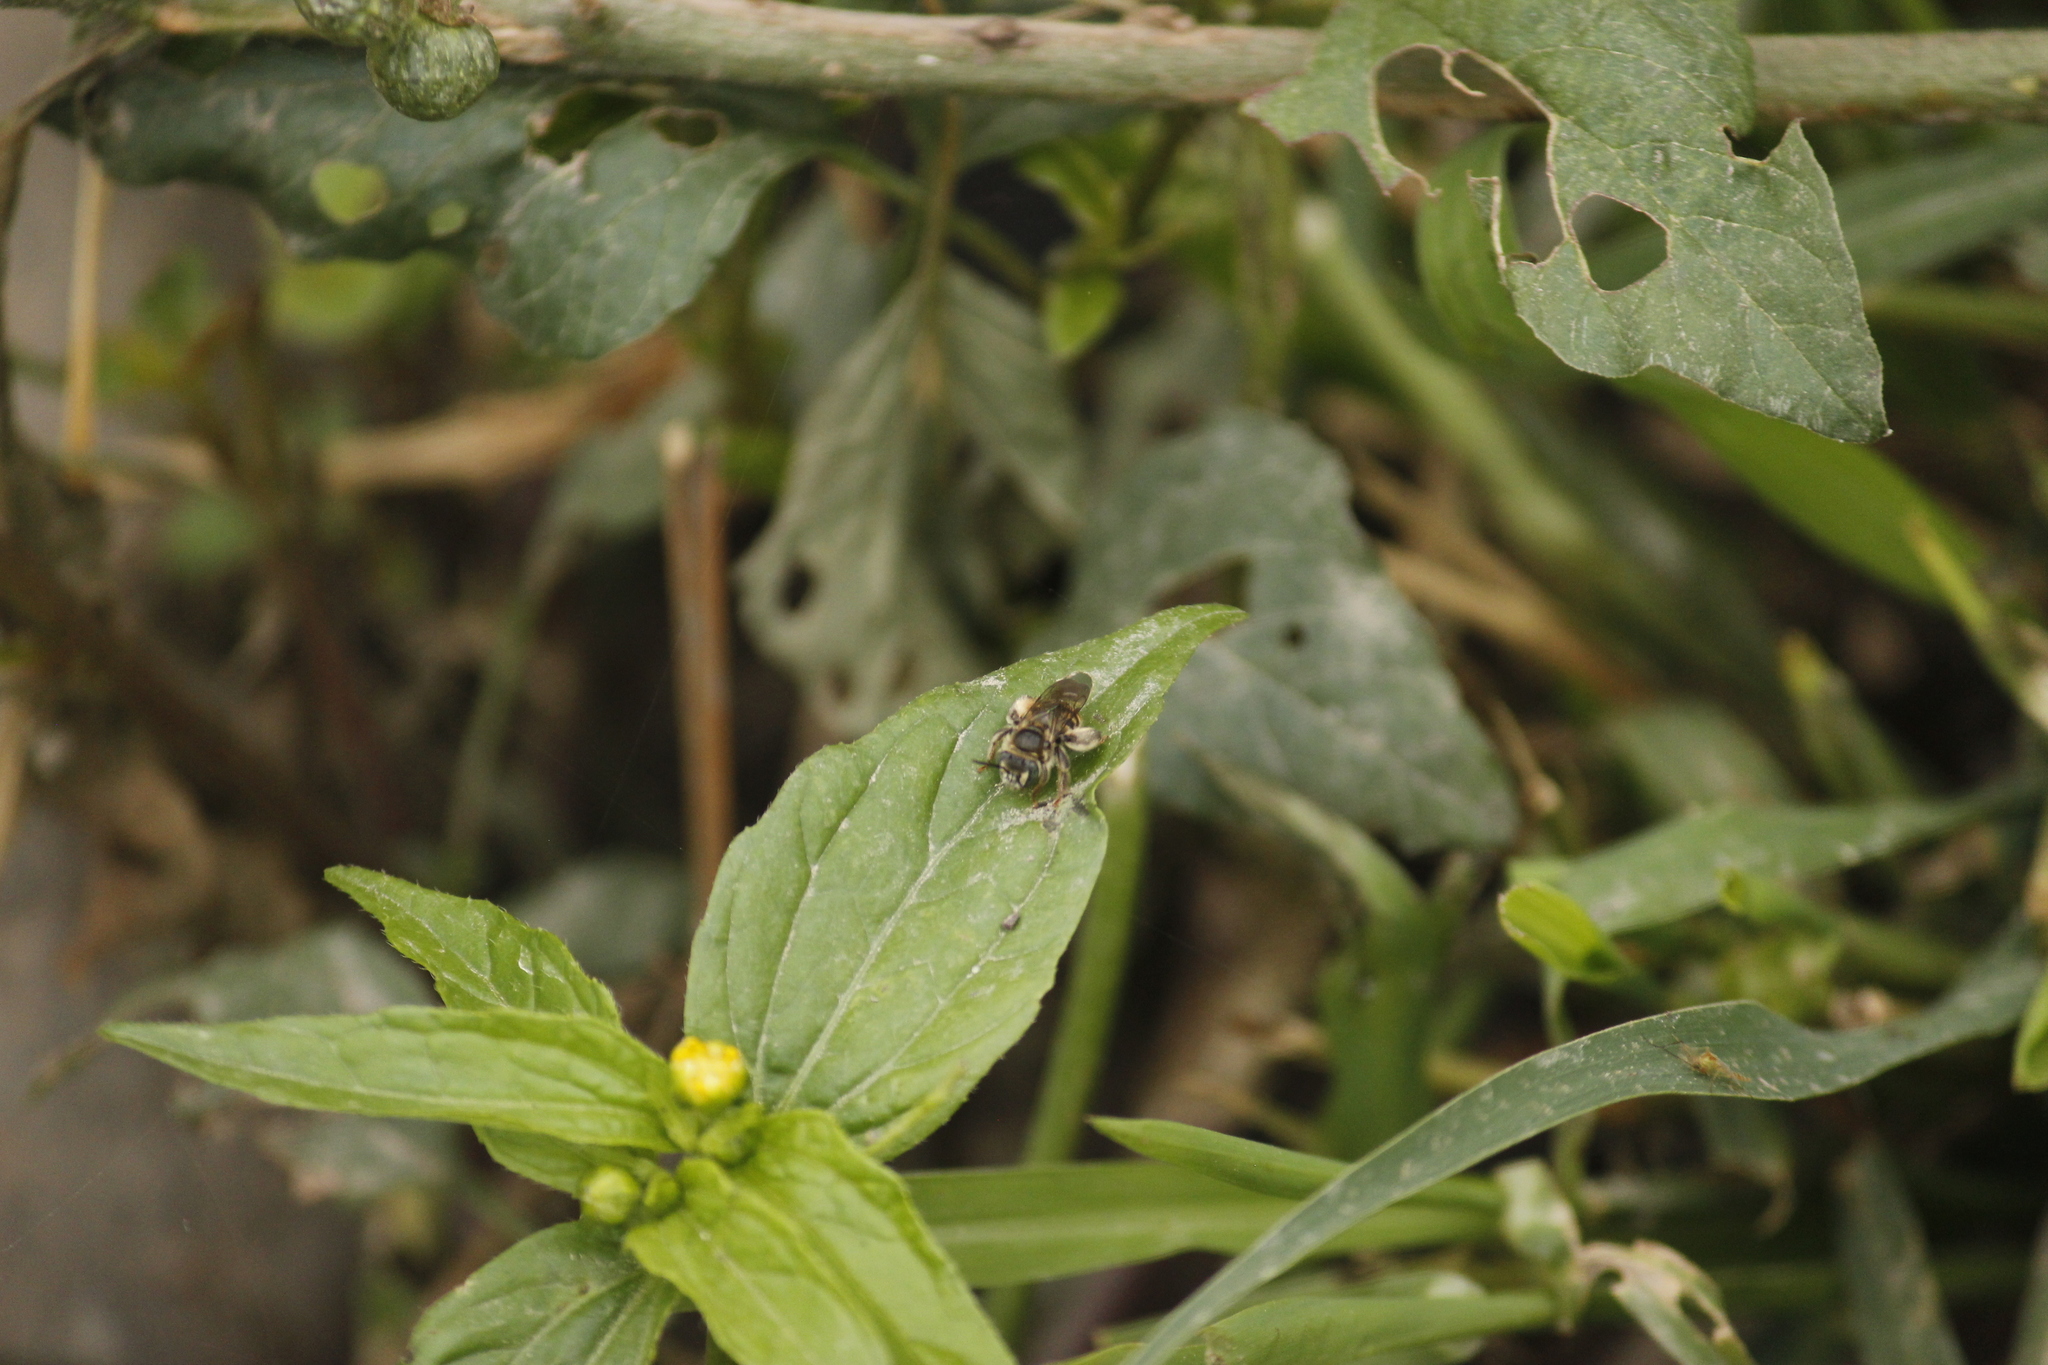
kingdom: Animalia
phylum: Arthropoda
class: Insecta
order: Hymenoptera
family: Apidae
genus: Exomalopsis
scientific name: Exomalopsis bruesi
